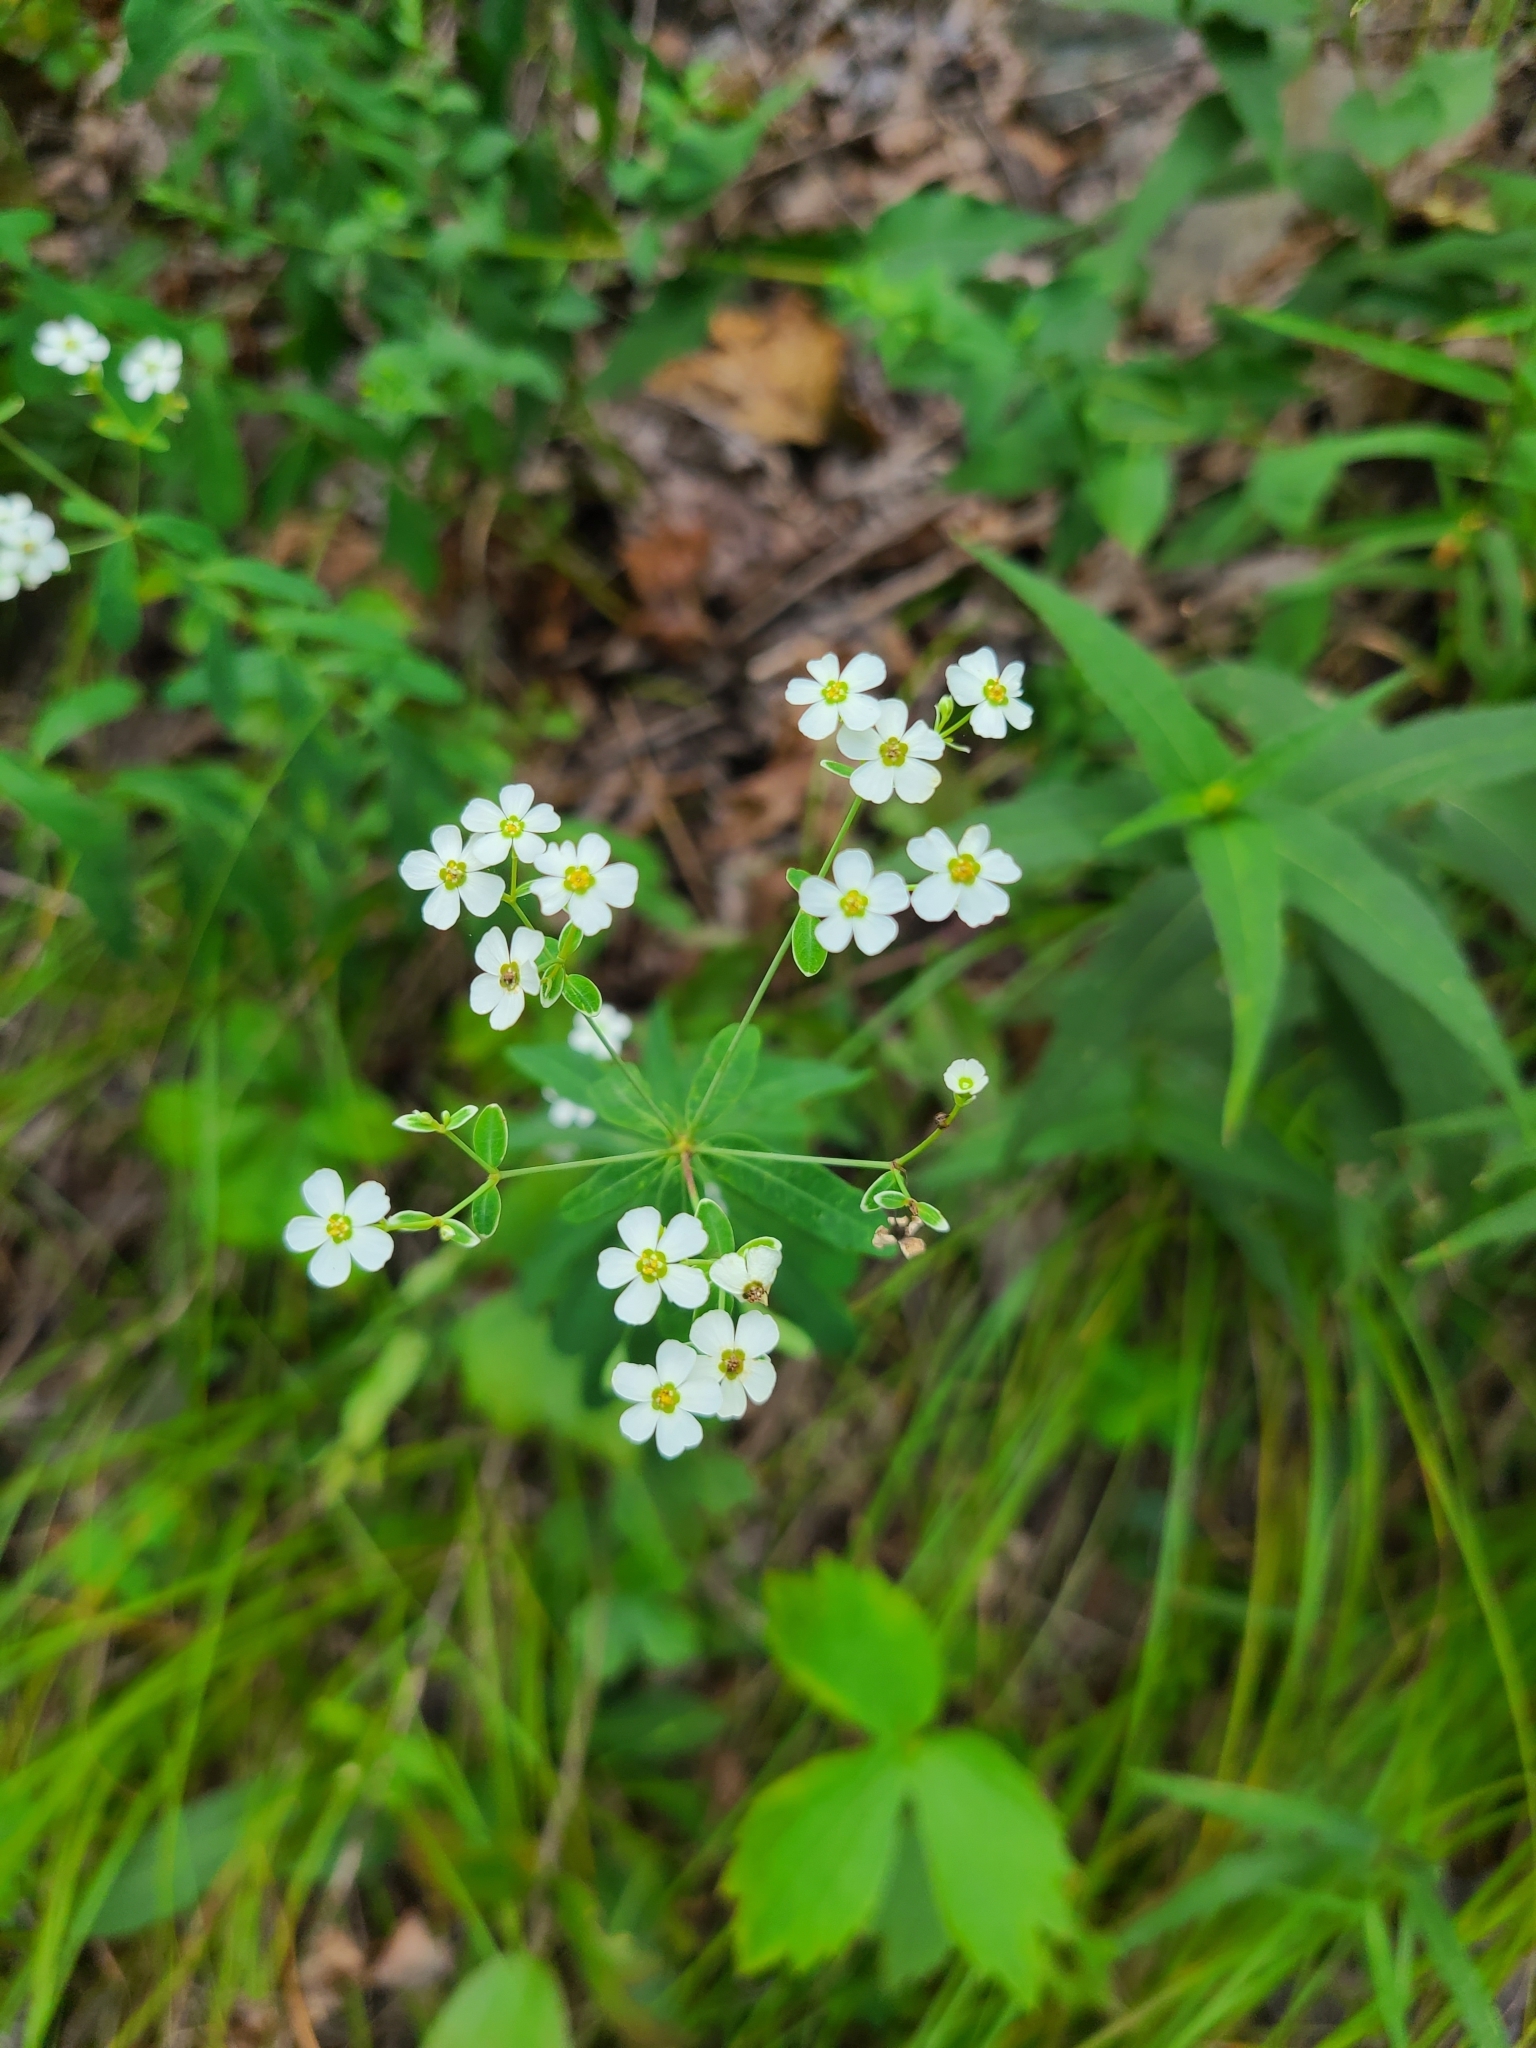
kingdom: Plantae
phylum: Tracheophyta
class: Magnoliopsida
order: Malpighiales
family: Euphorbiaceae
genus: Euphorbia
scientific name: Euphorbia corollata
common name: Flowering spurge
